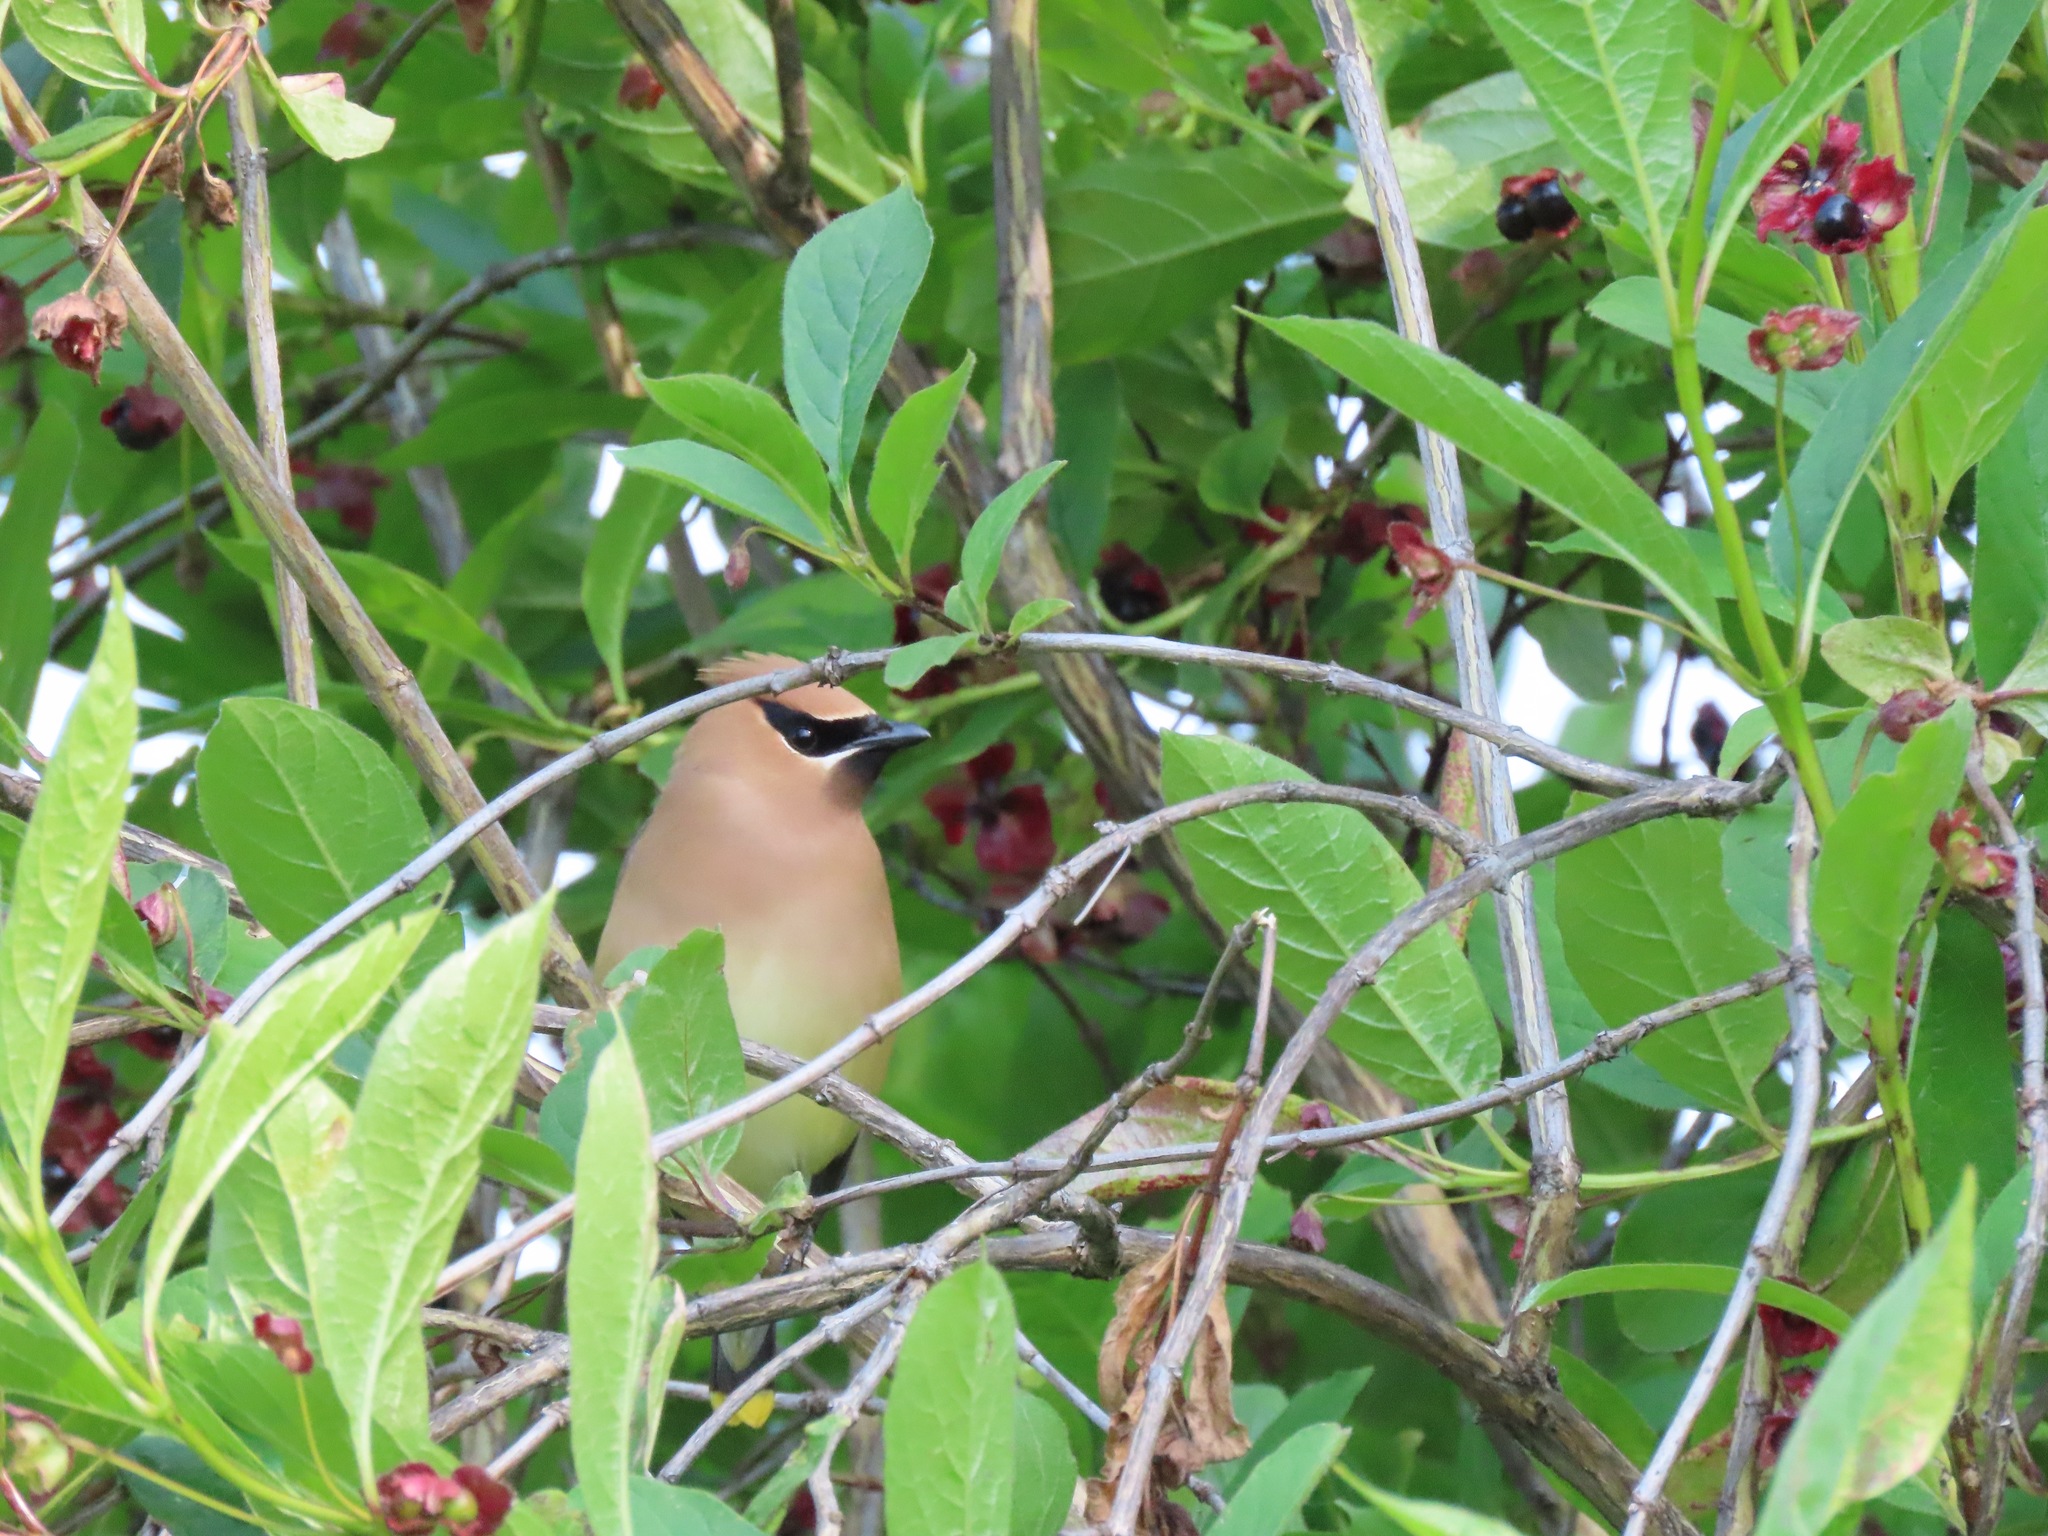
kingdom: Animalia
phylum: Chordata
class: Aves
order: Passeriformes
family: Bombycillidae
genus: Bombycilla
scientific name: Bombycilla cedrorum
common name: Cedar waxwing
